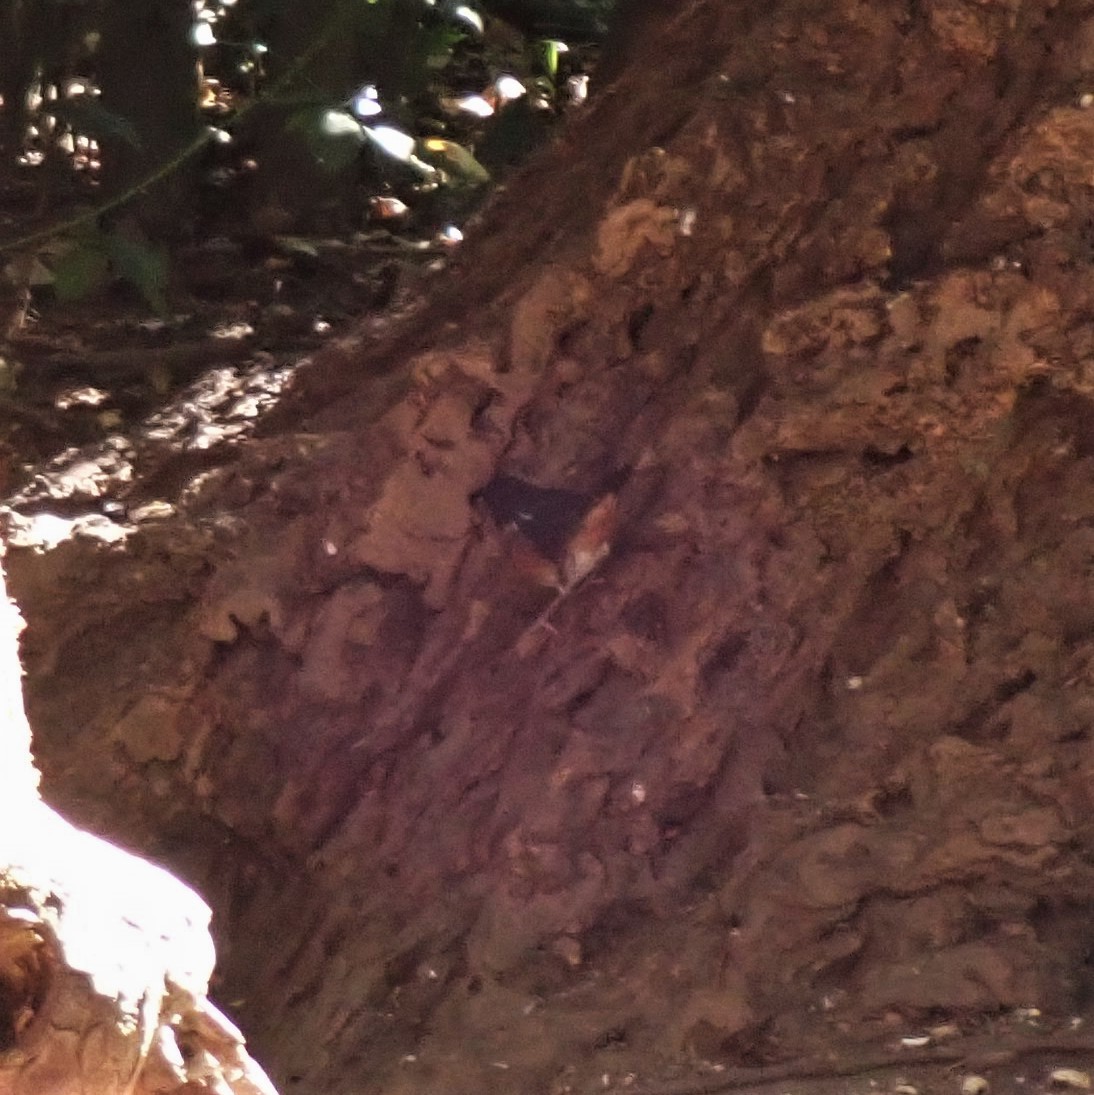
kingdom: Animalia
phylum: Chordata
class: Aves
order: Passeriformes
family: Passerellidae
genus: Pipilo
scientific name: Pipilo maculatus
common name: Spotted towhee
